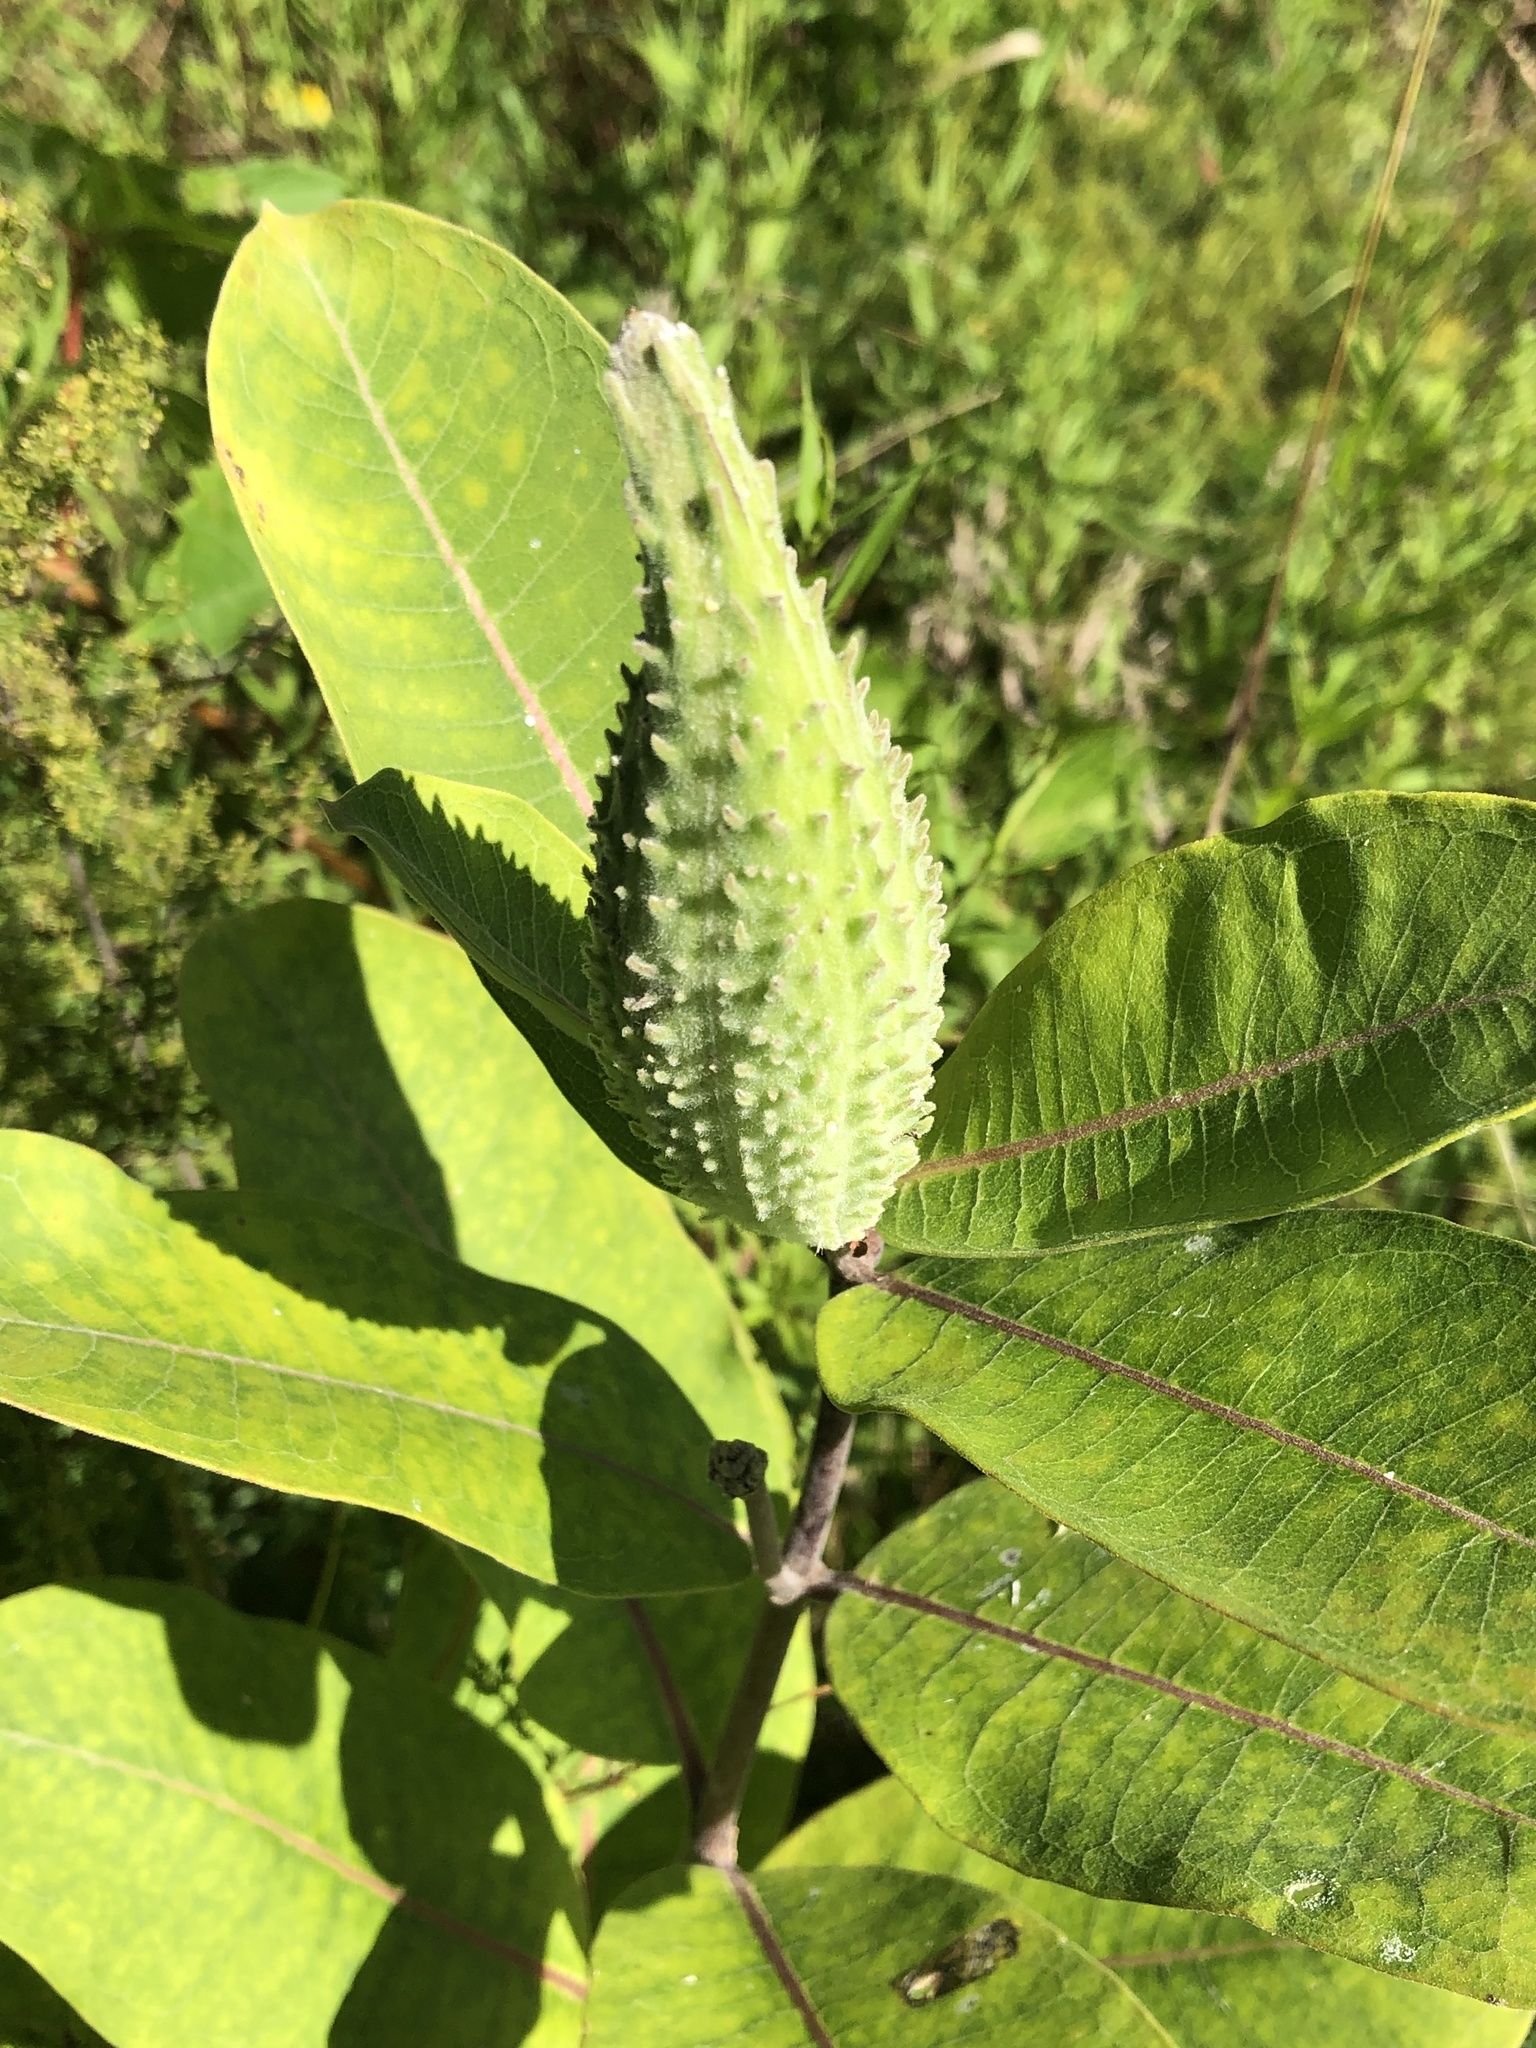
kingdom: Plantae
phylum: Tracheophyta
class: Magnoliopsida
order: Gentianales
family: Apocynaceae
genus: Asclepias
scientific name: Asclepias syriaca
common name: Common milkweed
